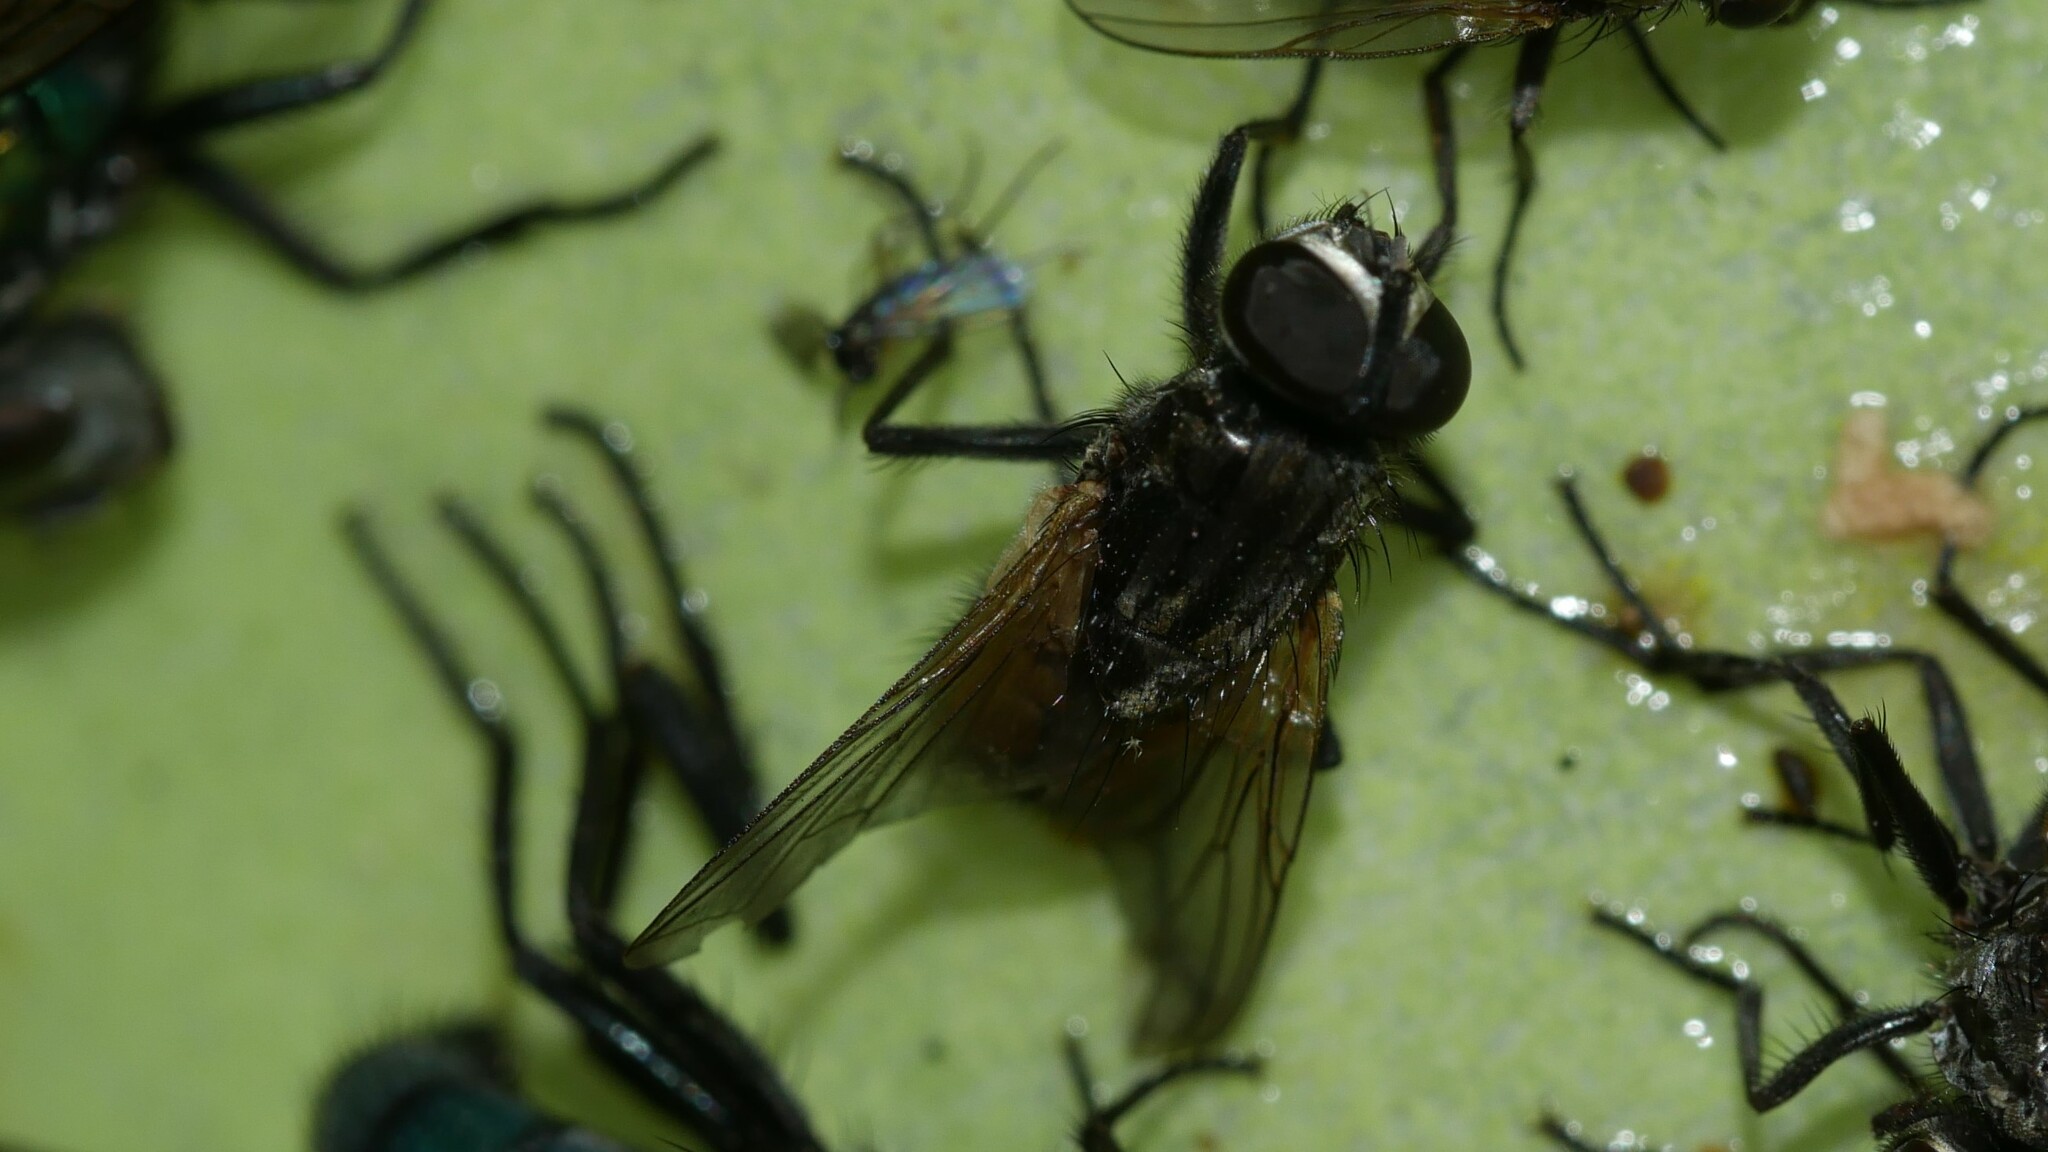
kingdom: Animalia
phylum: Arthropoda
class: Insecta
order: Diptera
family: Muscidae
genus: Musca
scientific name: Musca domestica
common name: House fly
